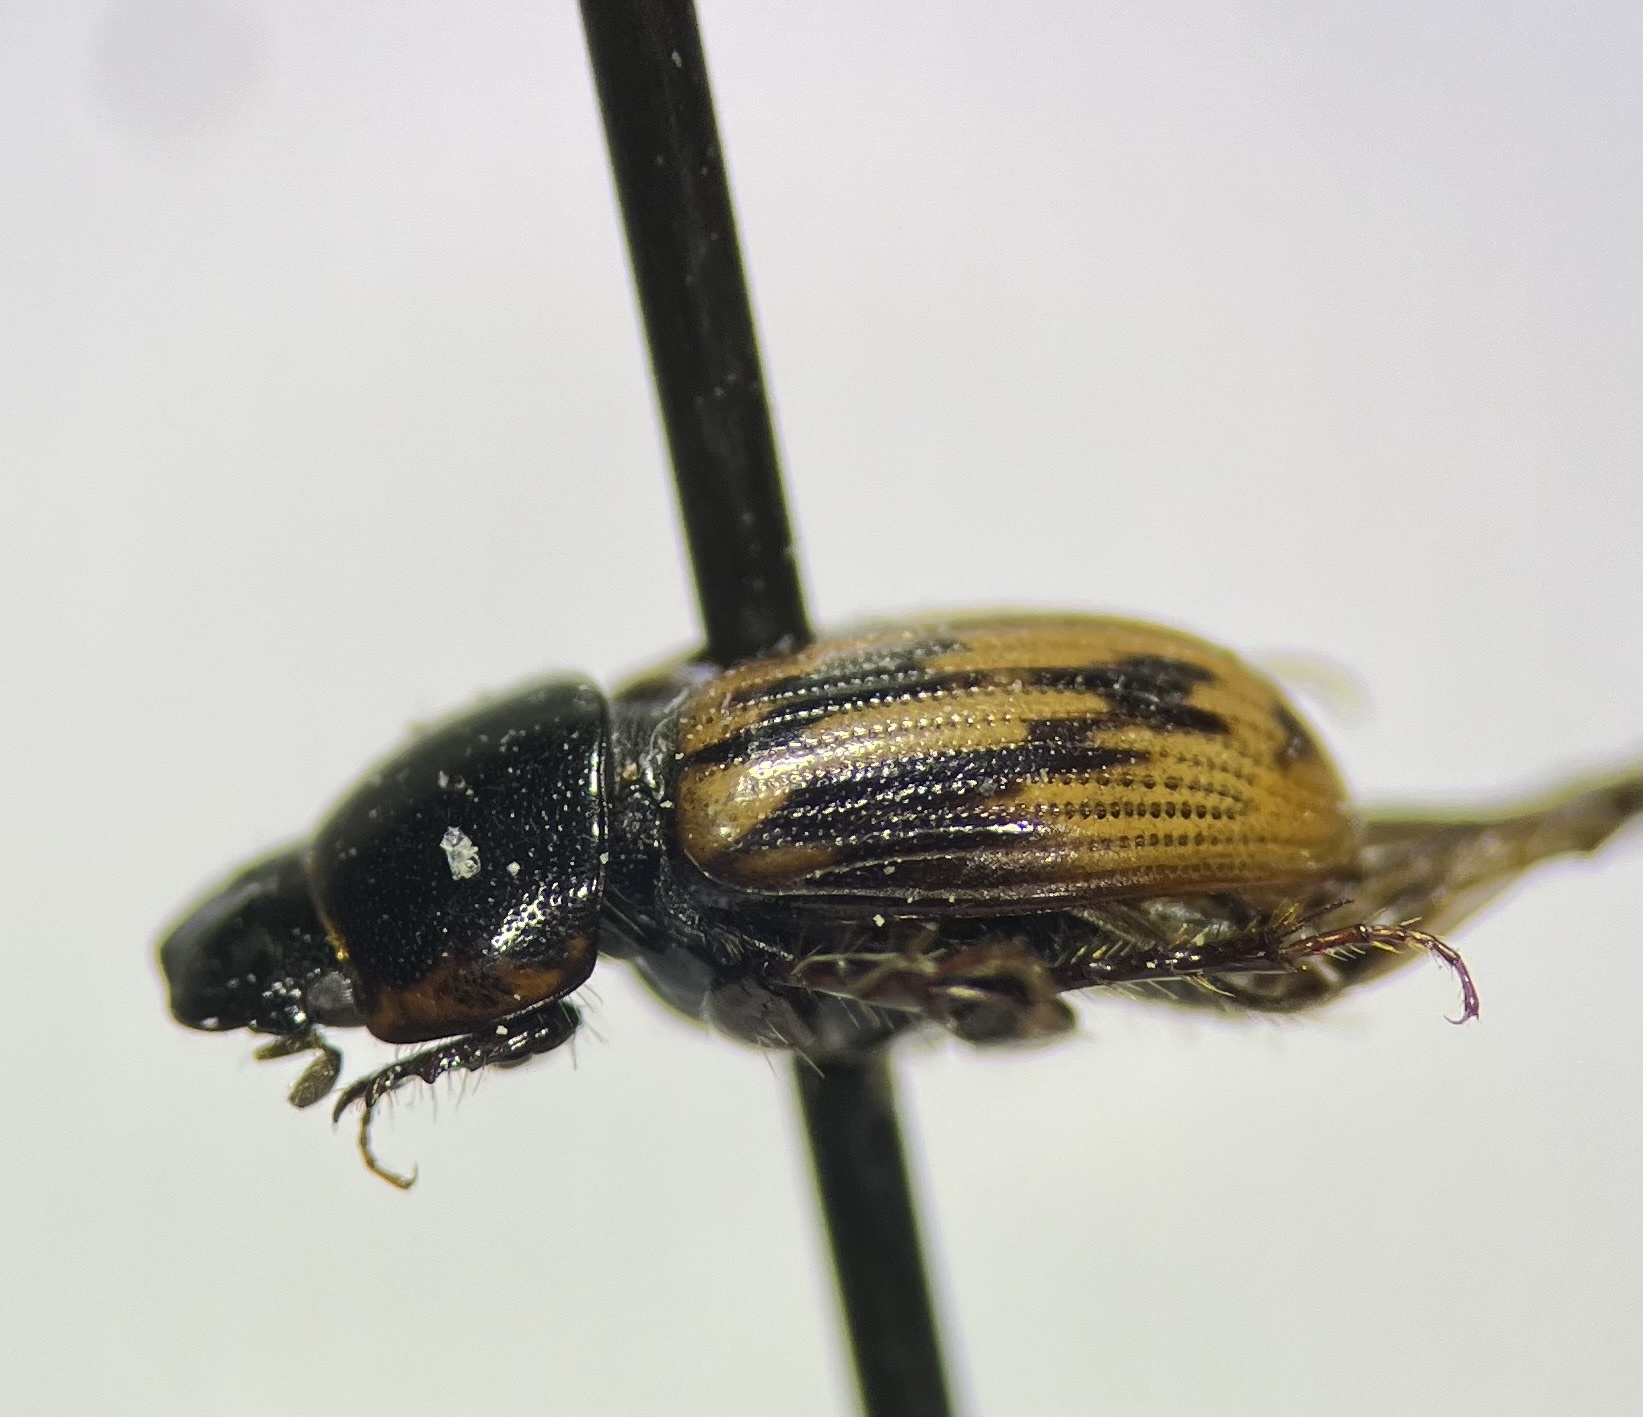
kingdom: Animalia
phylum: Arthropoda
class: Insecta
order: Coleoptera
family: Scarabaeidae
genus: Chilothorax
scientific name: Chilothorax distinctus
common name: Maculated dung beetle
